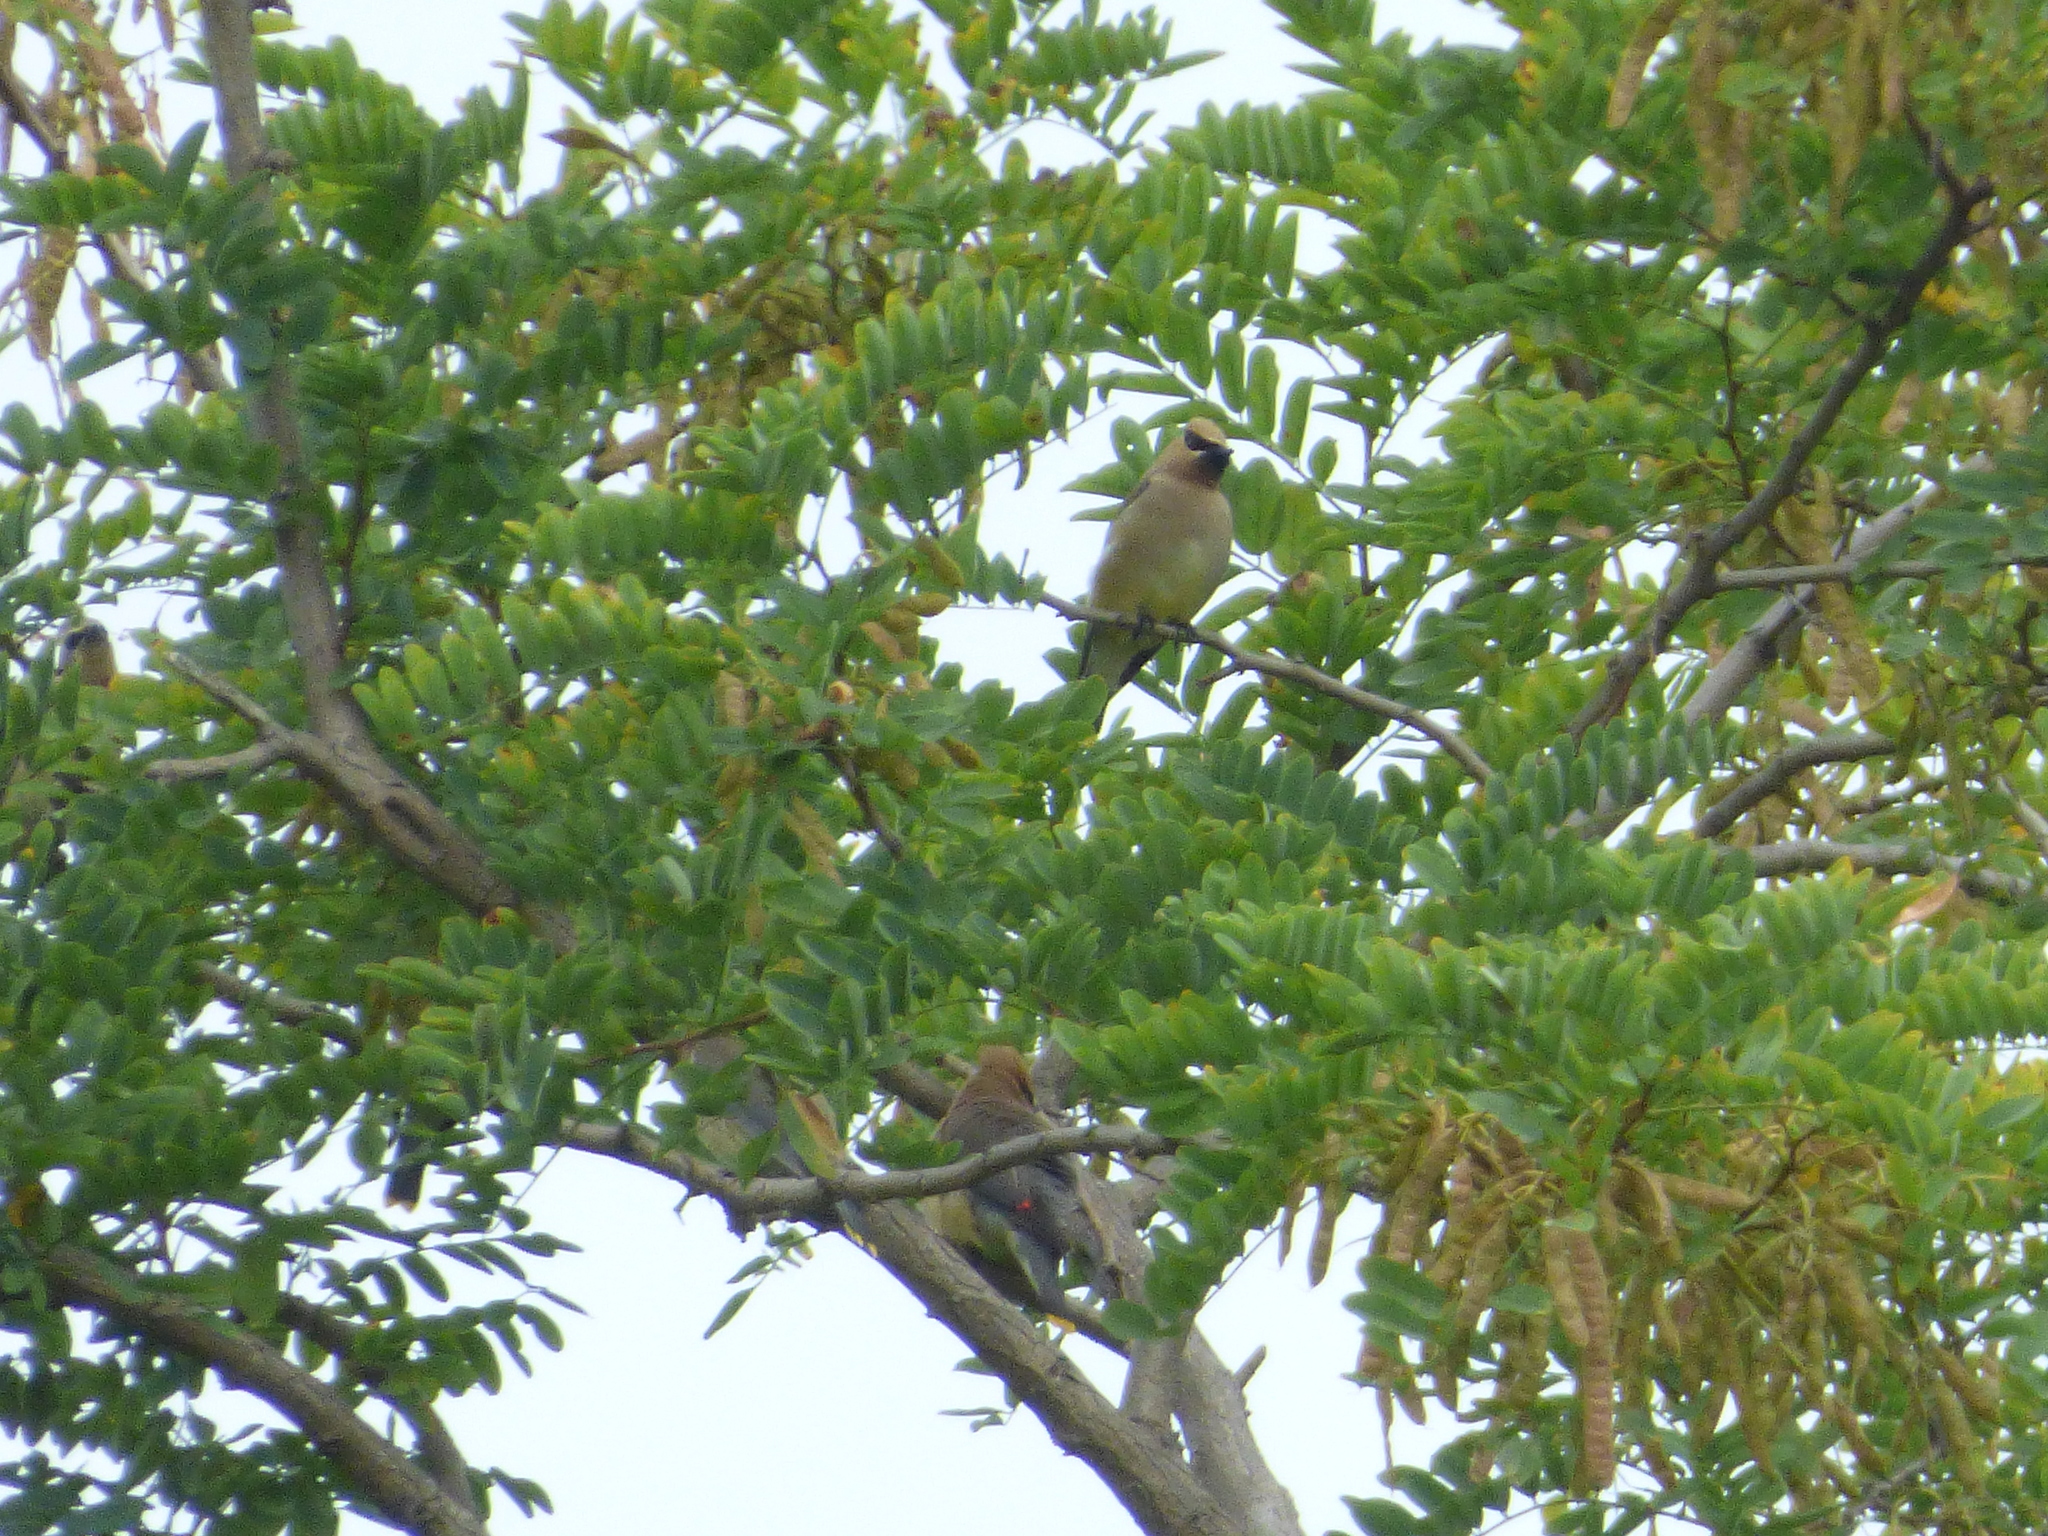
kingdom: Animalia
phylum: Chordata
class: Aves
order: Passeriformes
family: Bombycillidae
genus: Bombycilla
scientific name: Bombycilla cedrorum
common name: Cedar waxwing
